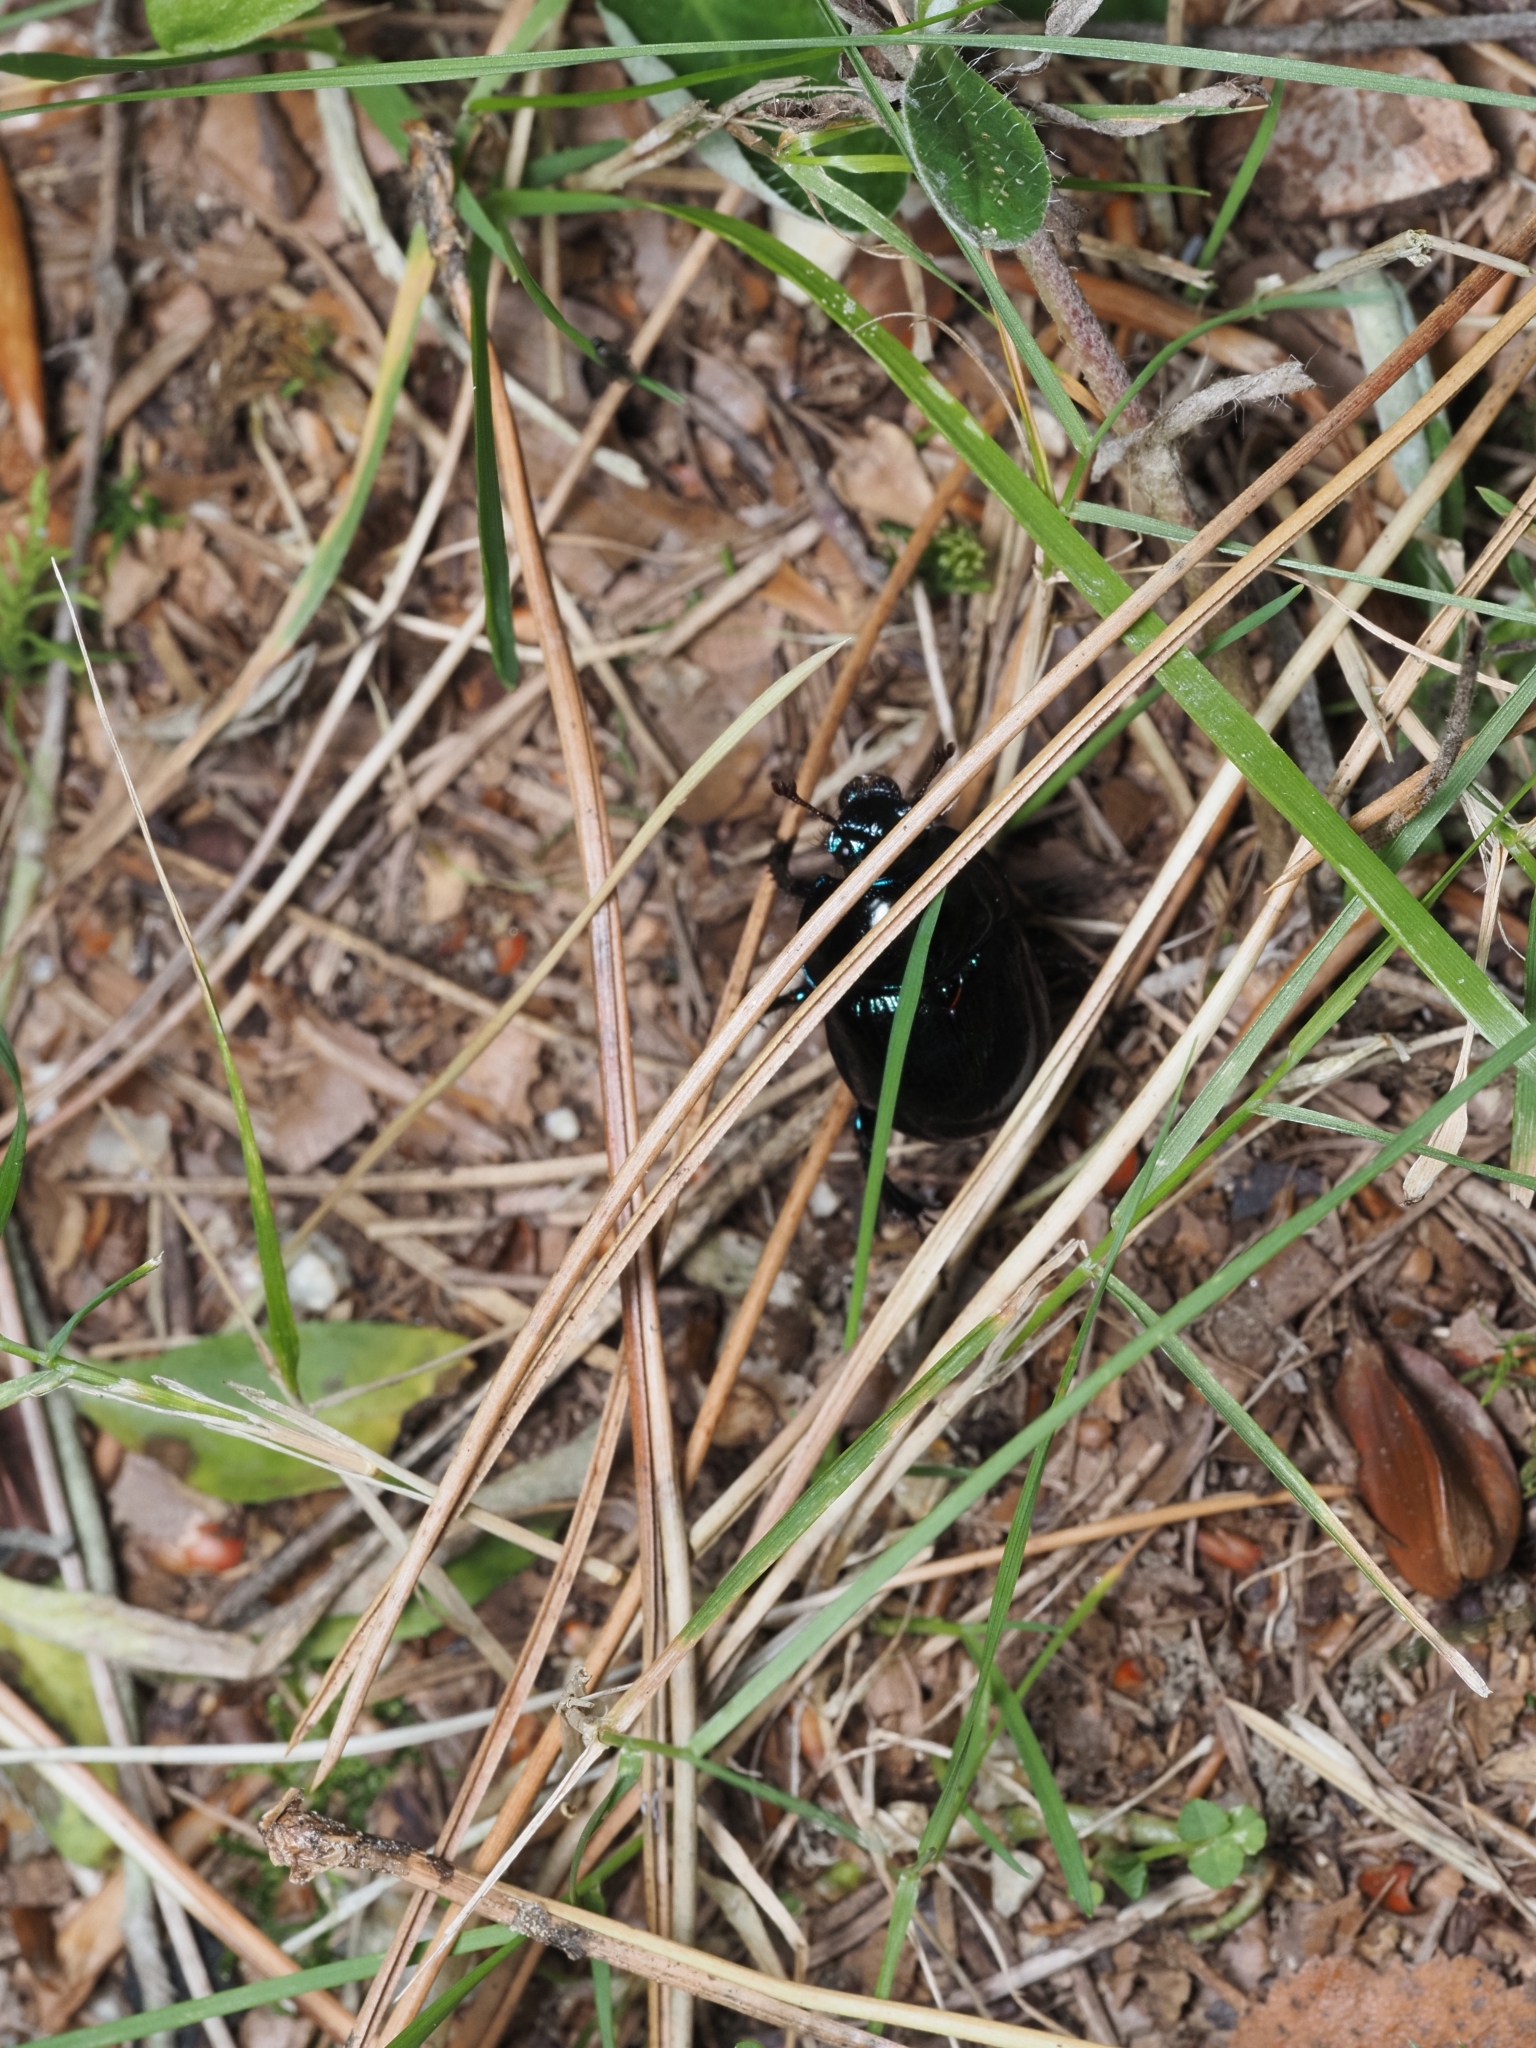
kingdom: Animalia
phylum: Arthropoda
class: Insecta
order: Coleoptera
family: Geotrupidae
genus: Anoplotrupes
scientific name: Anoplotrupes stercorosus
